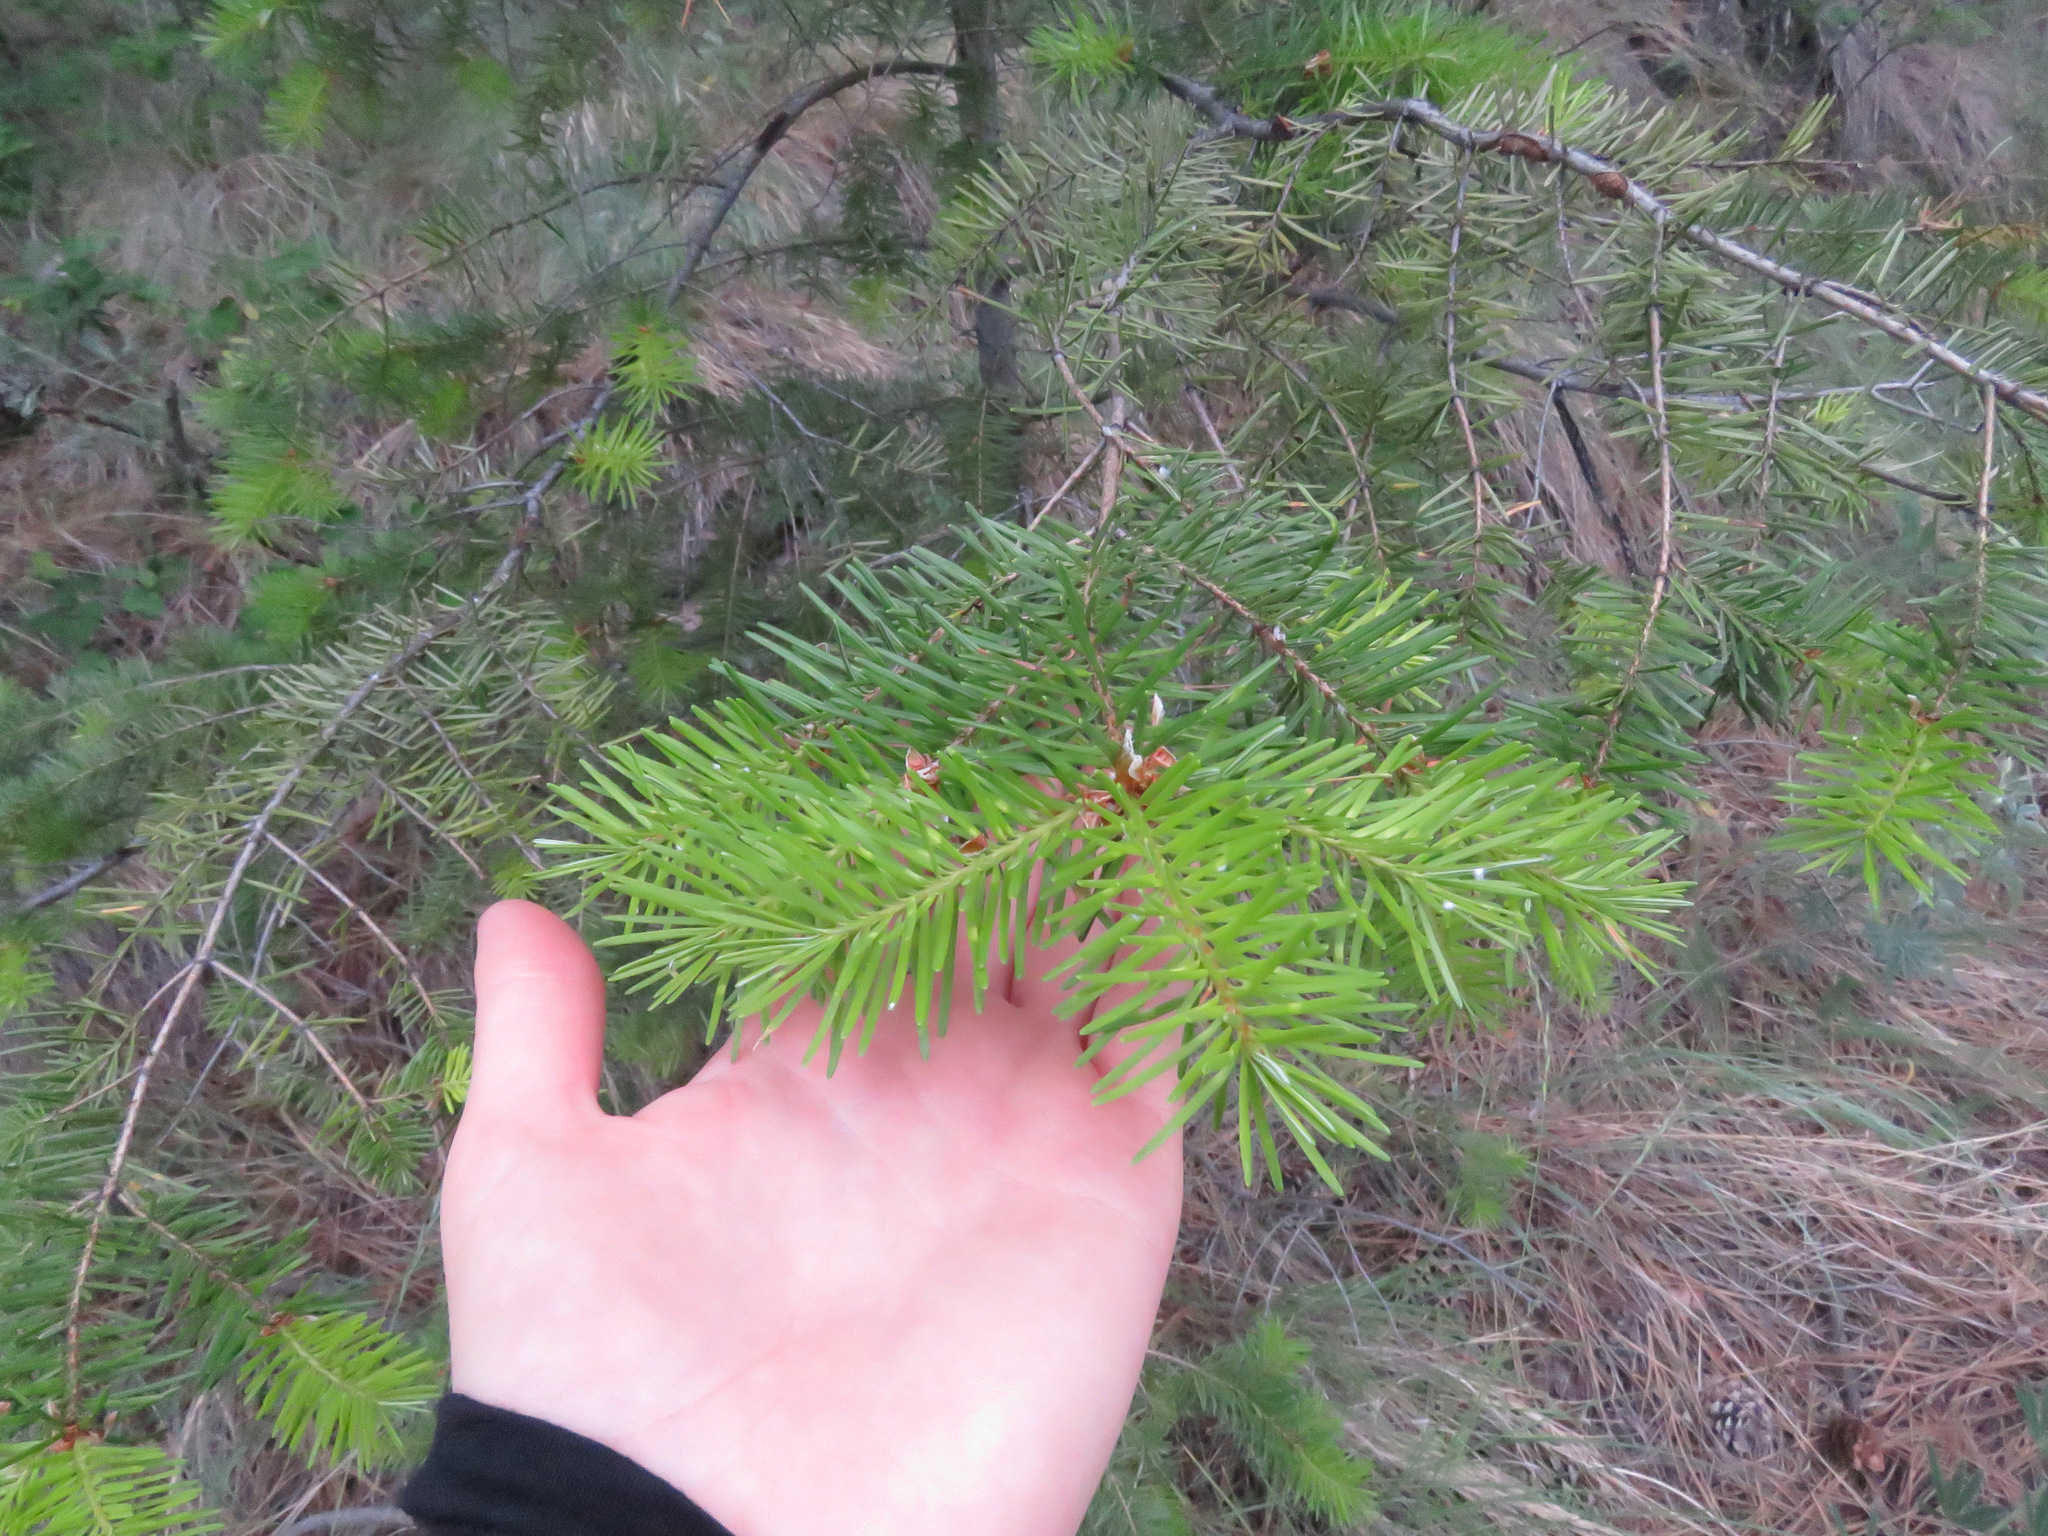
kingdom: Plantae
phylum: Tracheophyta
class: Pinopsida
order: Pinales
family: Pinaceae
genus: Pseudotsuga
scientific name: Pseudotsuga menziesii
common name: Douglas fir
